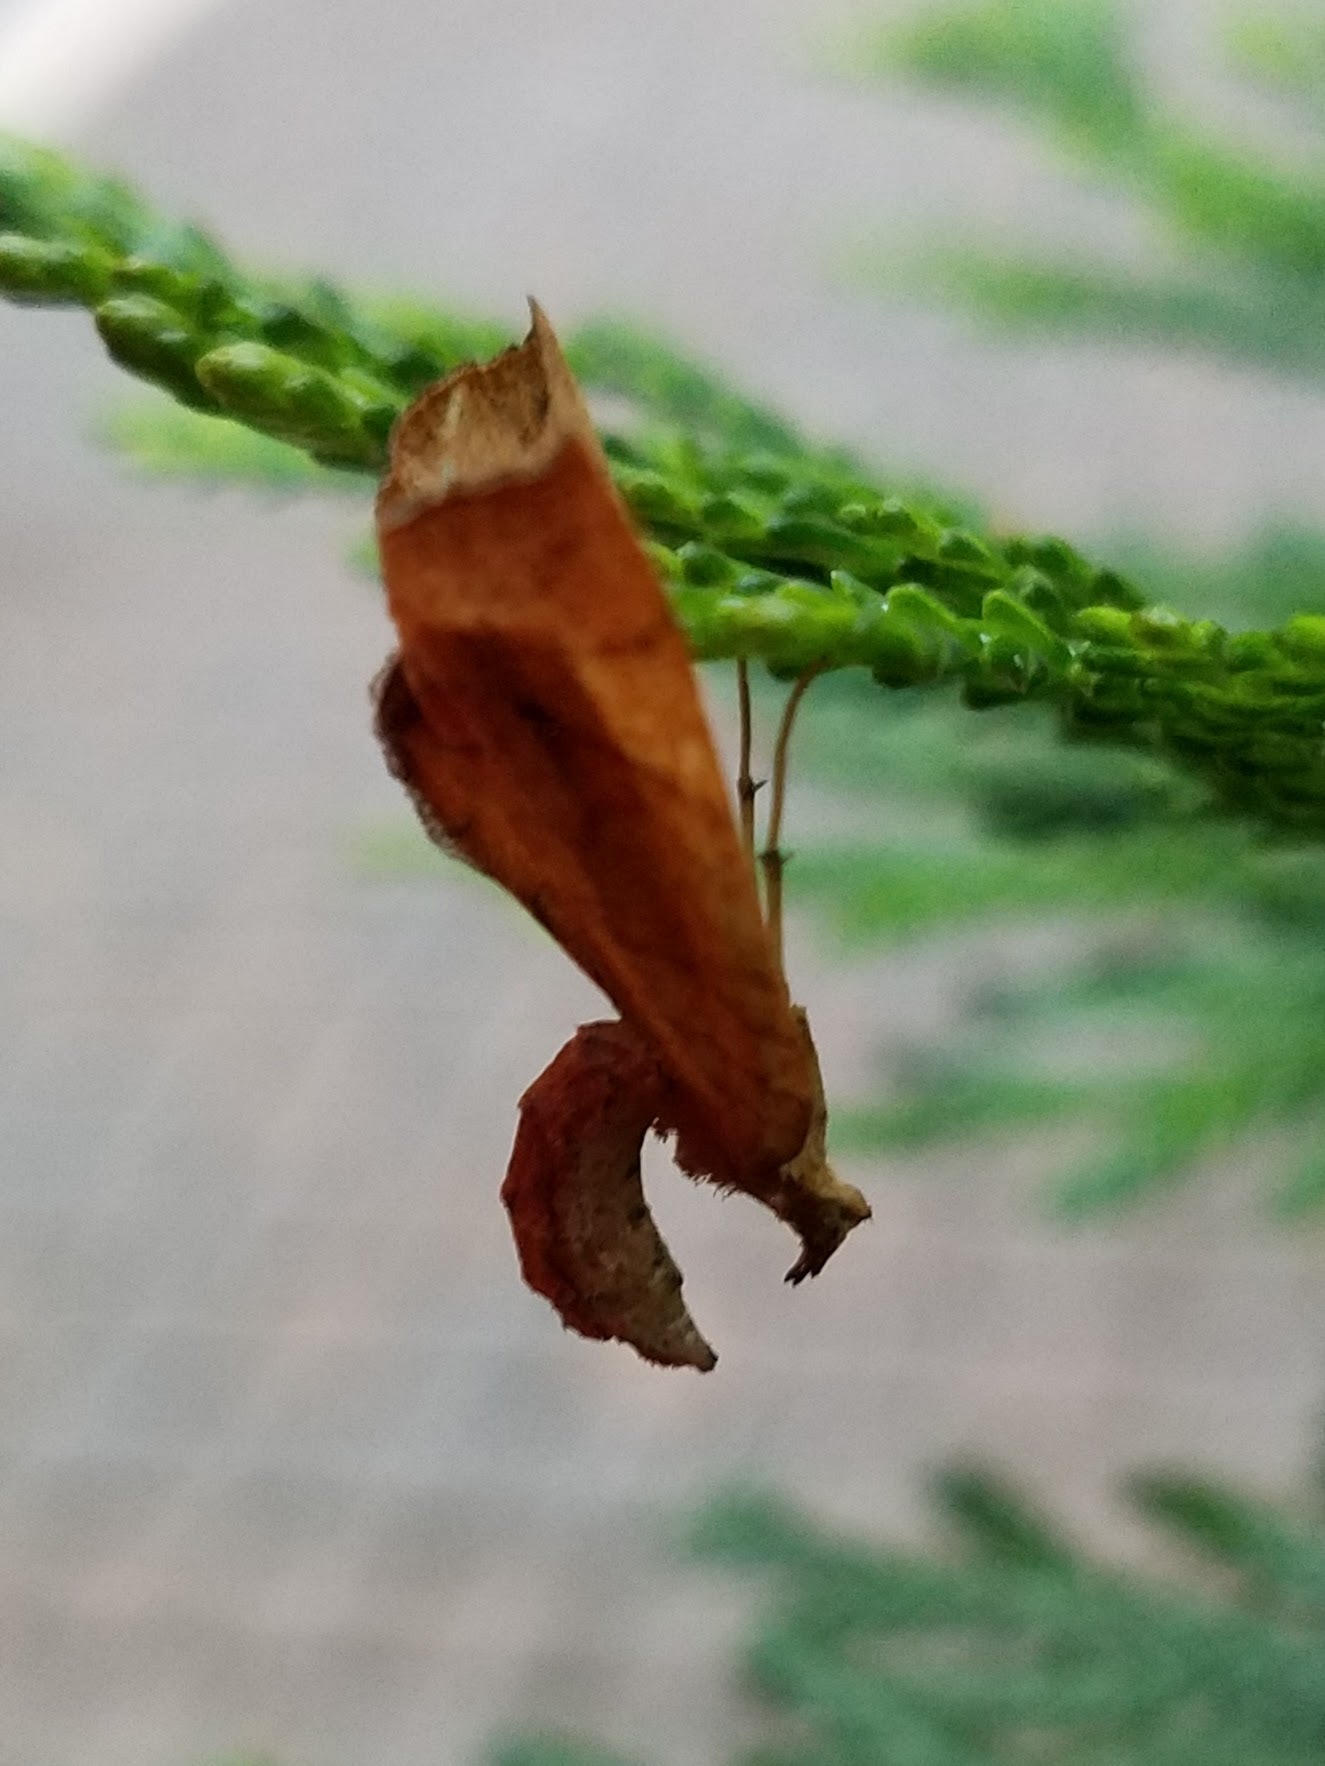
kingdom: Animalia
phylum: Arthropoda
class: Insecta
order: Lepidoptera
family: Geometridae
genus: Eulithis
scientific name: Eulithis
